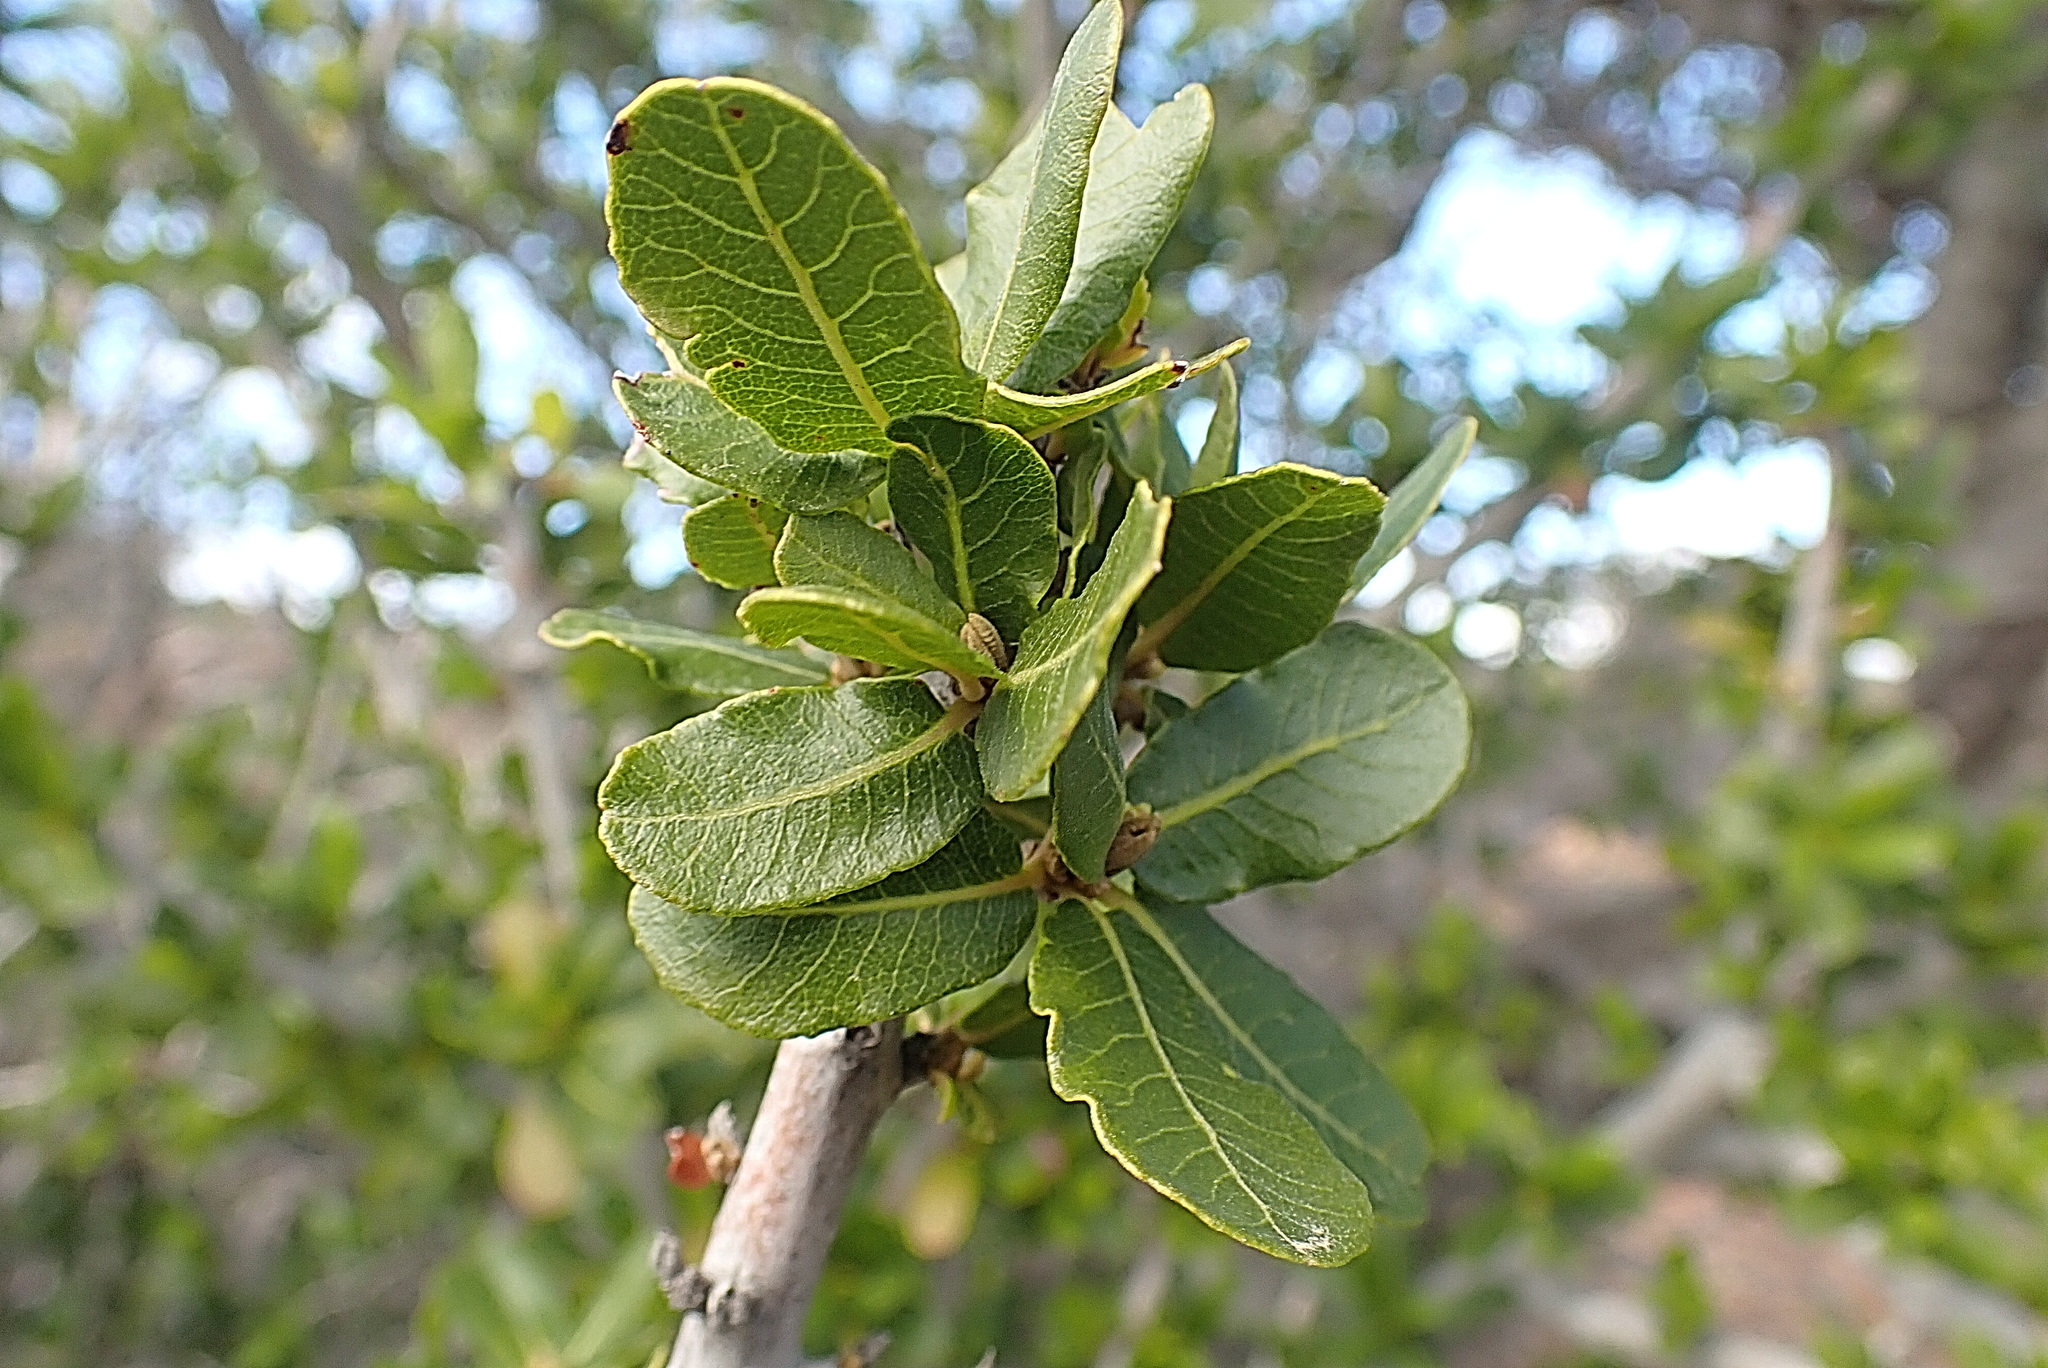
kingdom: Plantae
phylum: Tracheophyta
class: Magnoliopsida
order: Sapindales
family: Sapindaceae
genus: Pappea
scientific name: Pappea capensis
